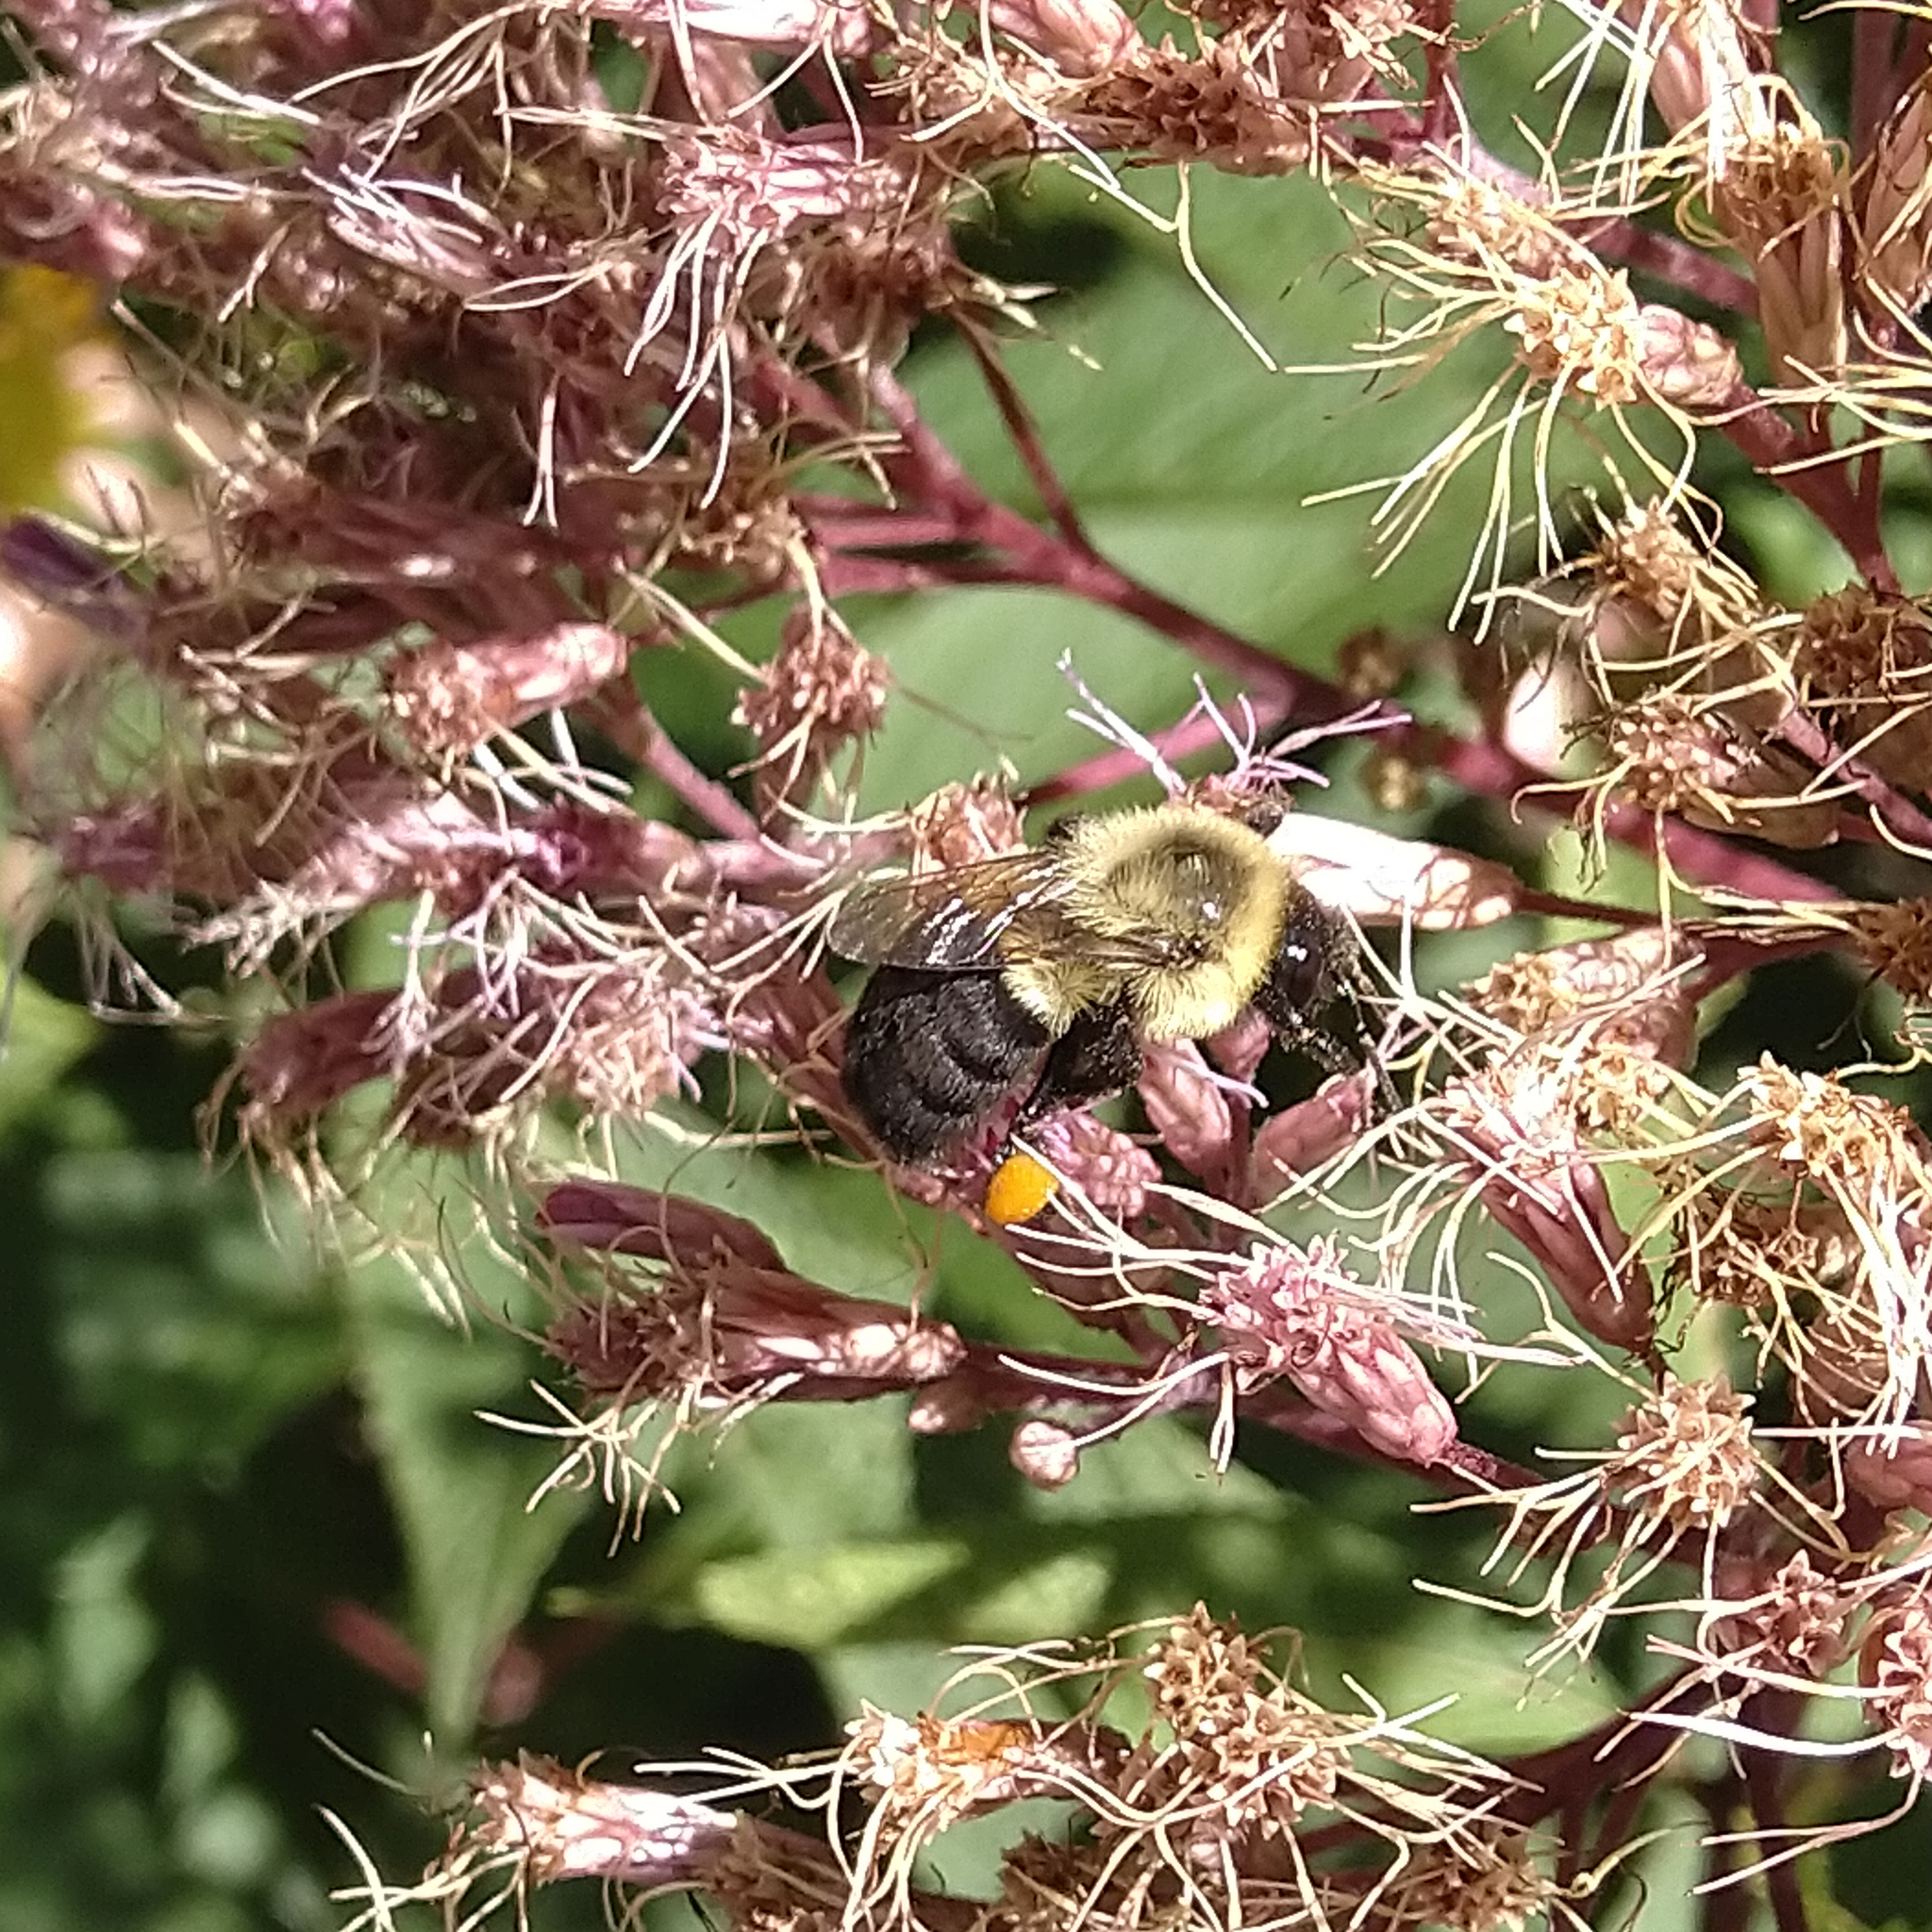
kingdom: Animalia
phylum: Arthropoda
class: Insecta
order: Hymenoptera
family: Apidae
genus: Bombus
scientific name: Bombus impatiens
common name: Common eastern bumble bee
